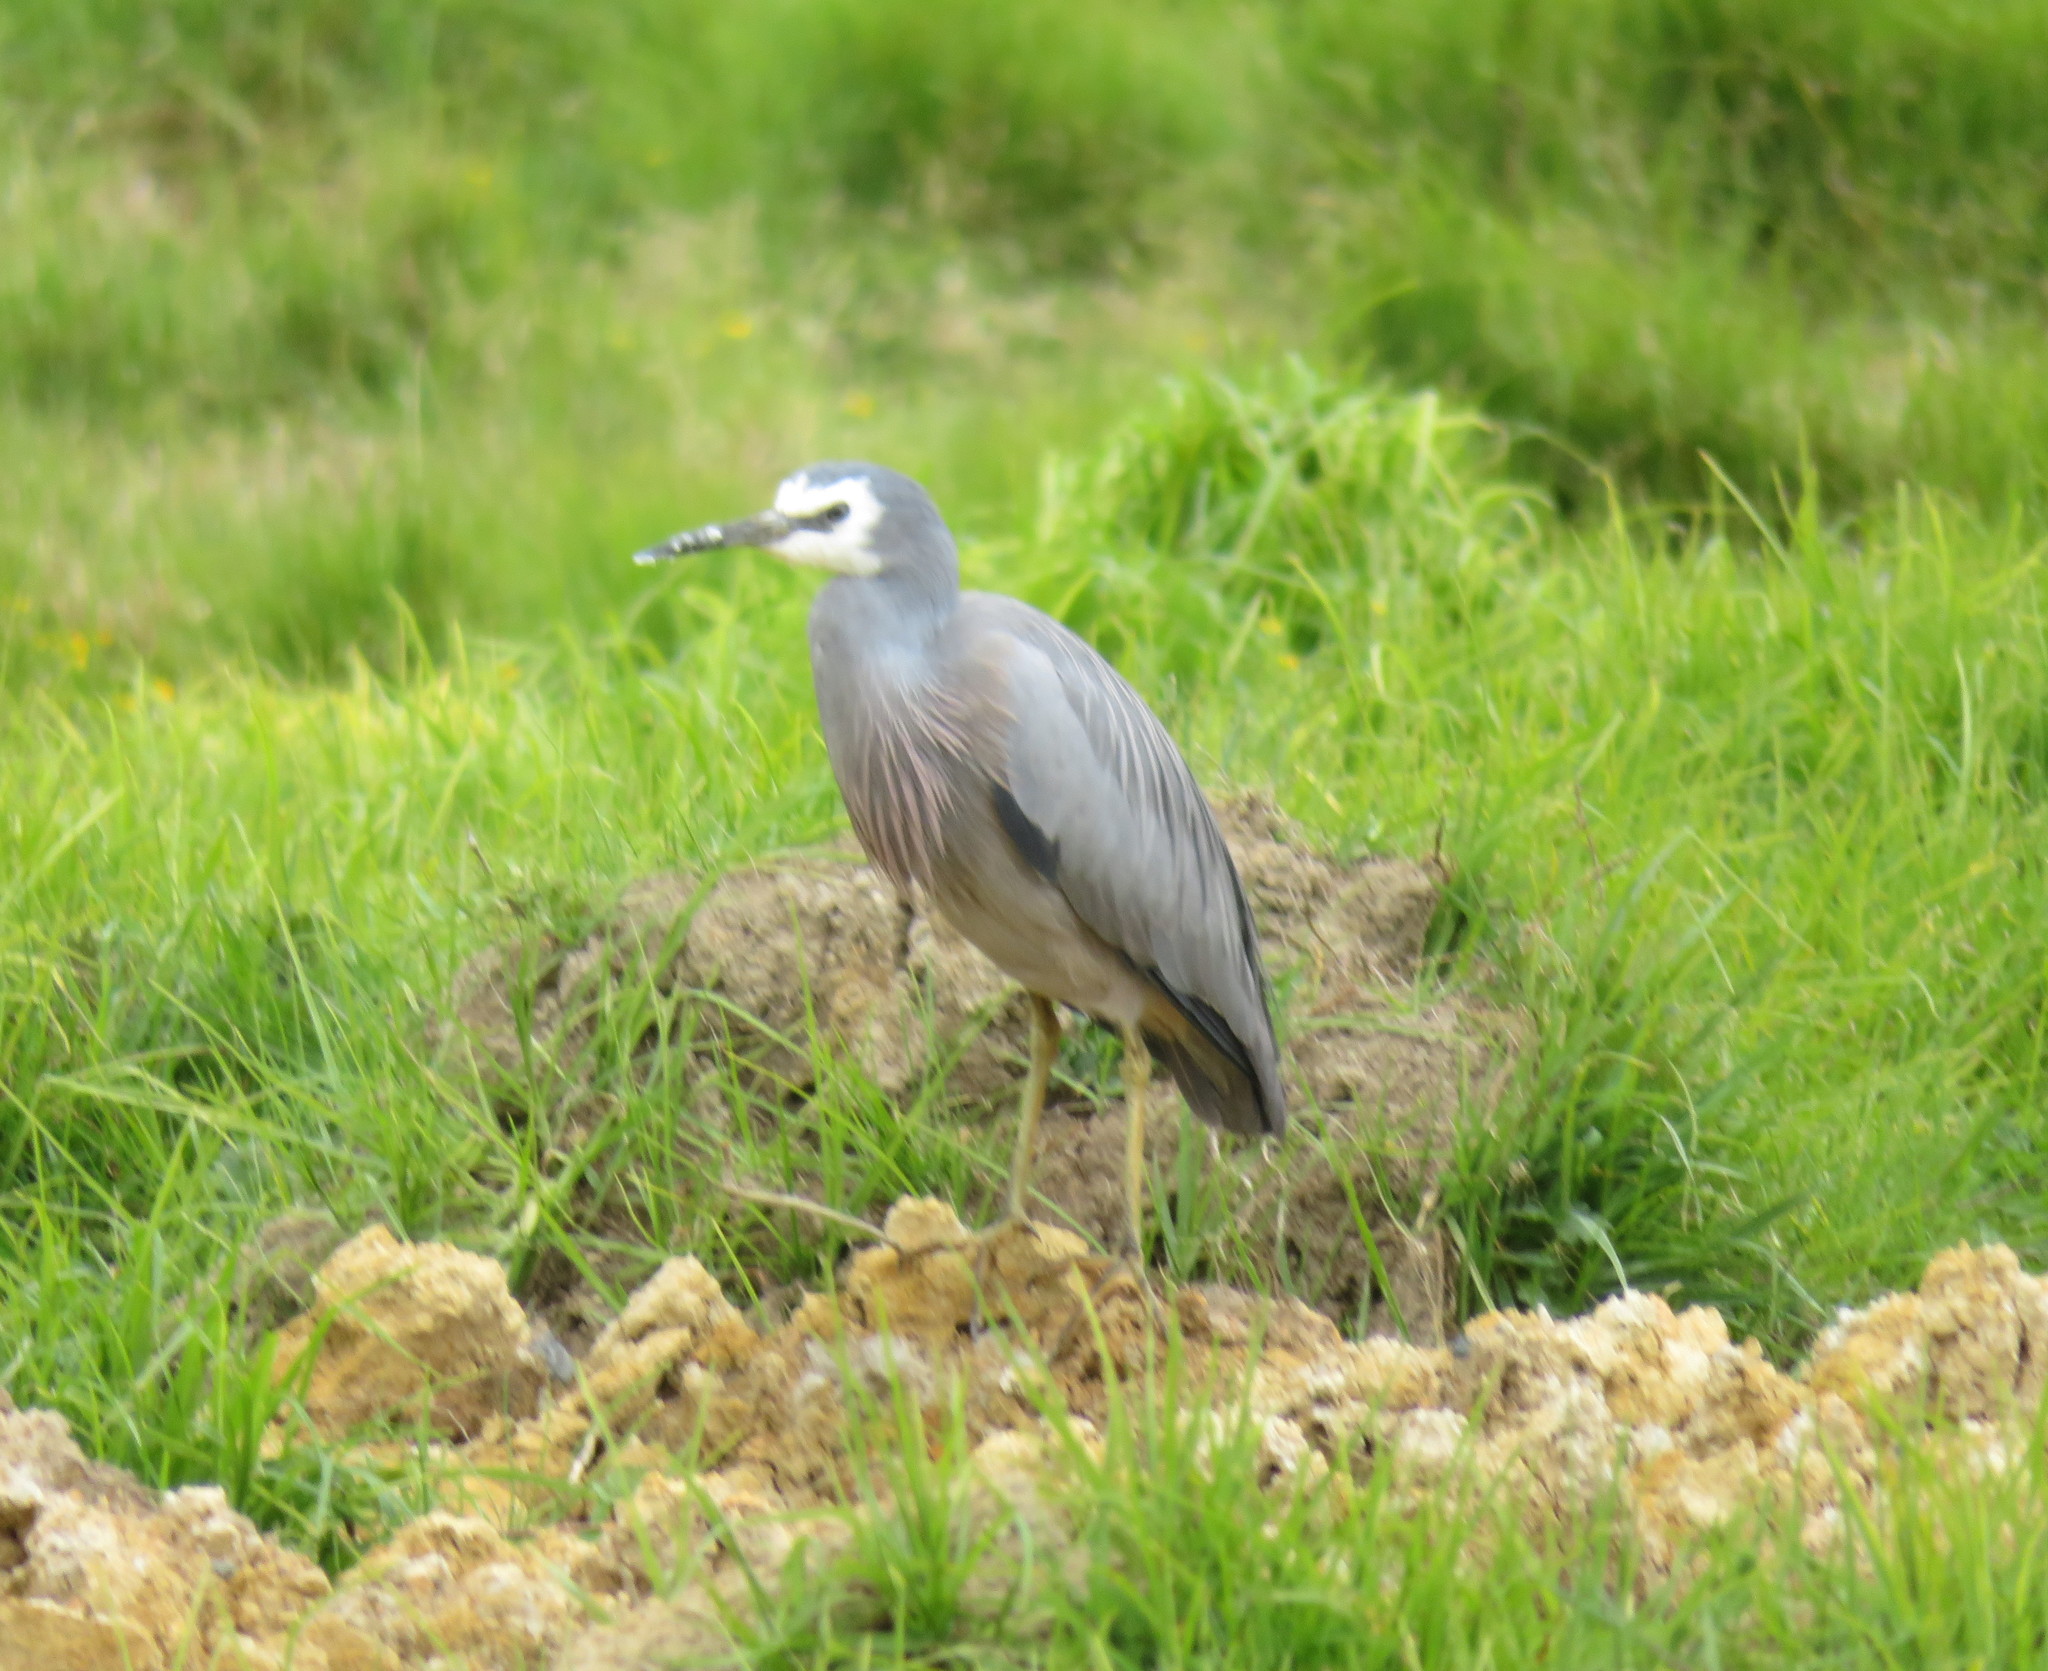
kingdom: Animalia
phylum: Chordata
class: Aves
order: Pelecaniformes
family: Ardeidae
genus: Egretta
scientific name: Egretta novaehollandiae
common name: White-faced heron
